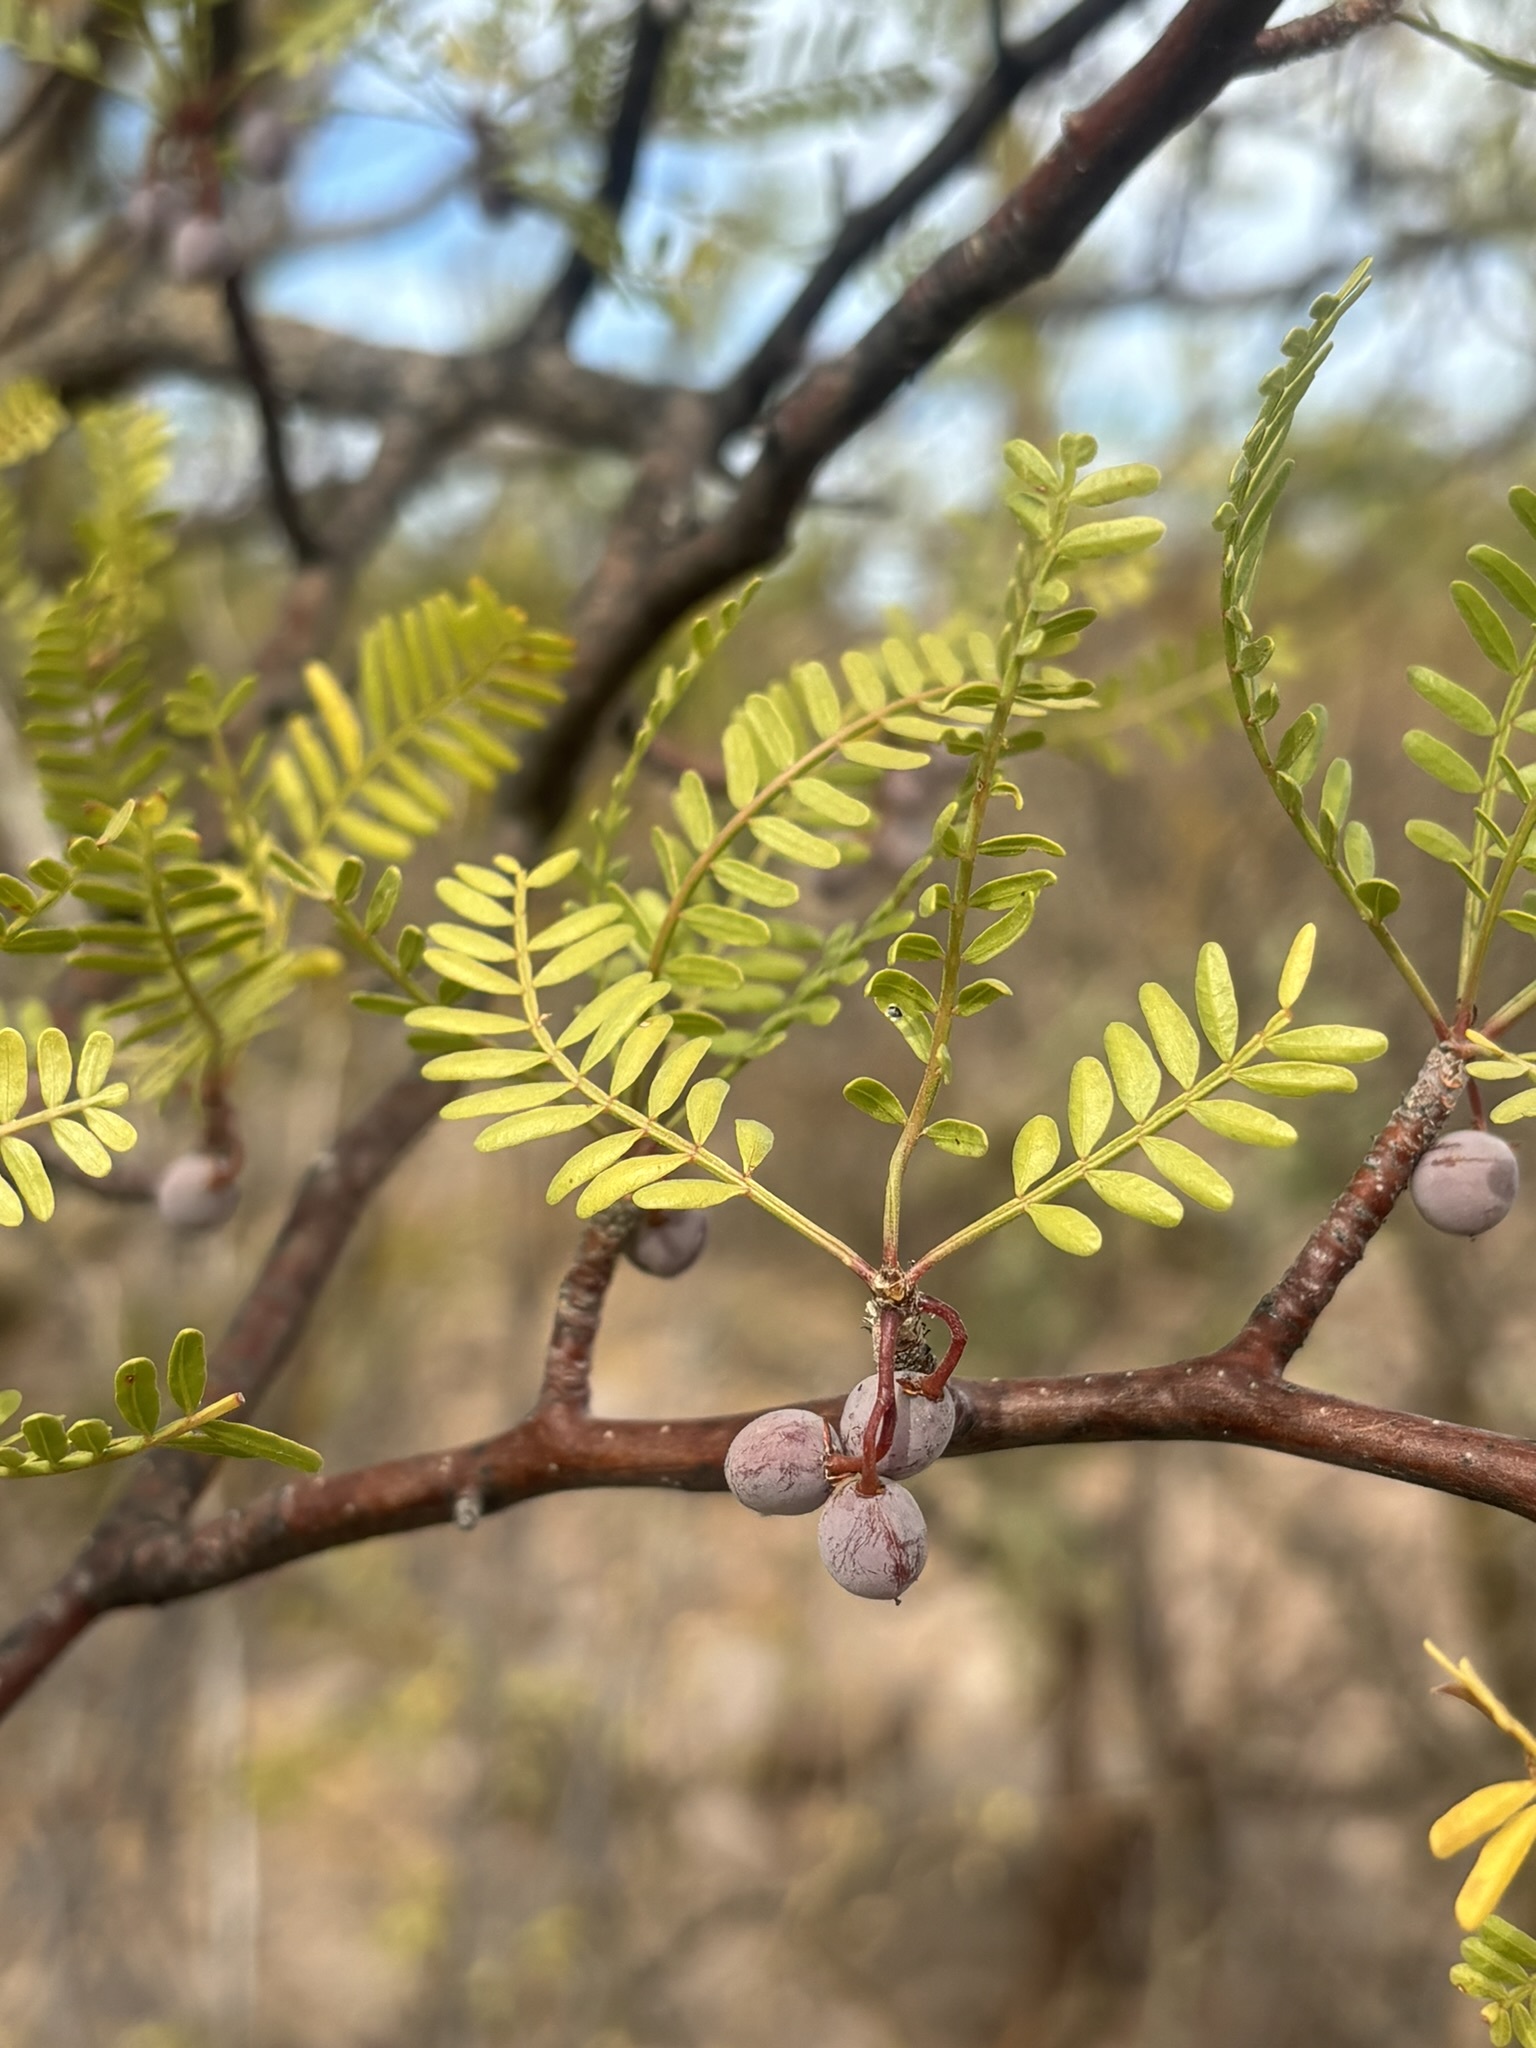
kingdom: Plantae
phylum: Tracheophyta
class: Magnoliopsida
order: Sapindales
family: Burseraceae
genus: Bursera
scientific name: Bursera microphylla
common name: Elephant tree
